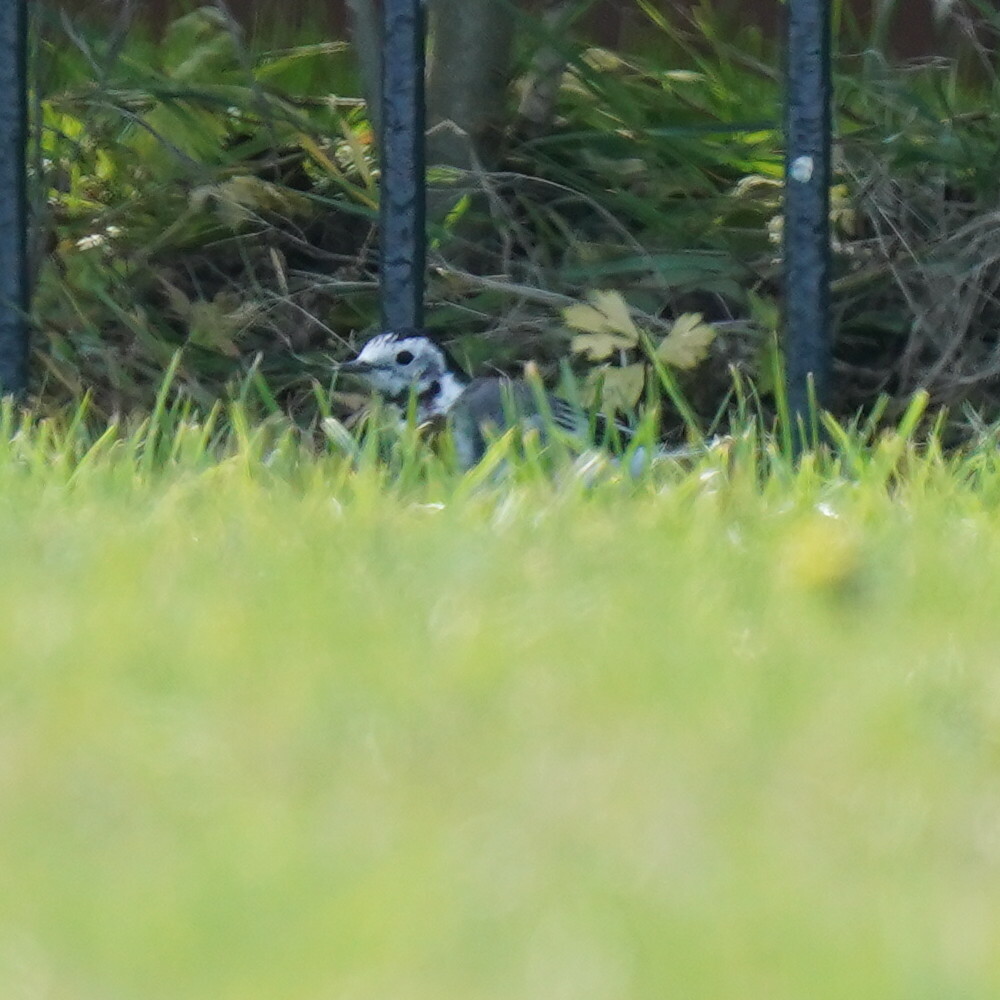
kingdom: Animalia
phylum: Chordata
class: Aves
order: Passeriformes
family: Motacillidae
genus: Motacilla
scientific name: Motacilla alba
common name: White wagtail
